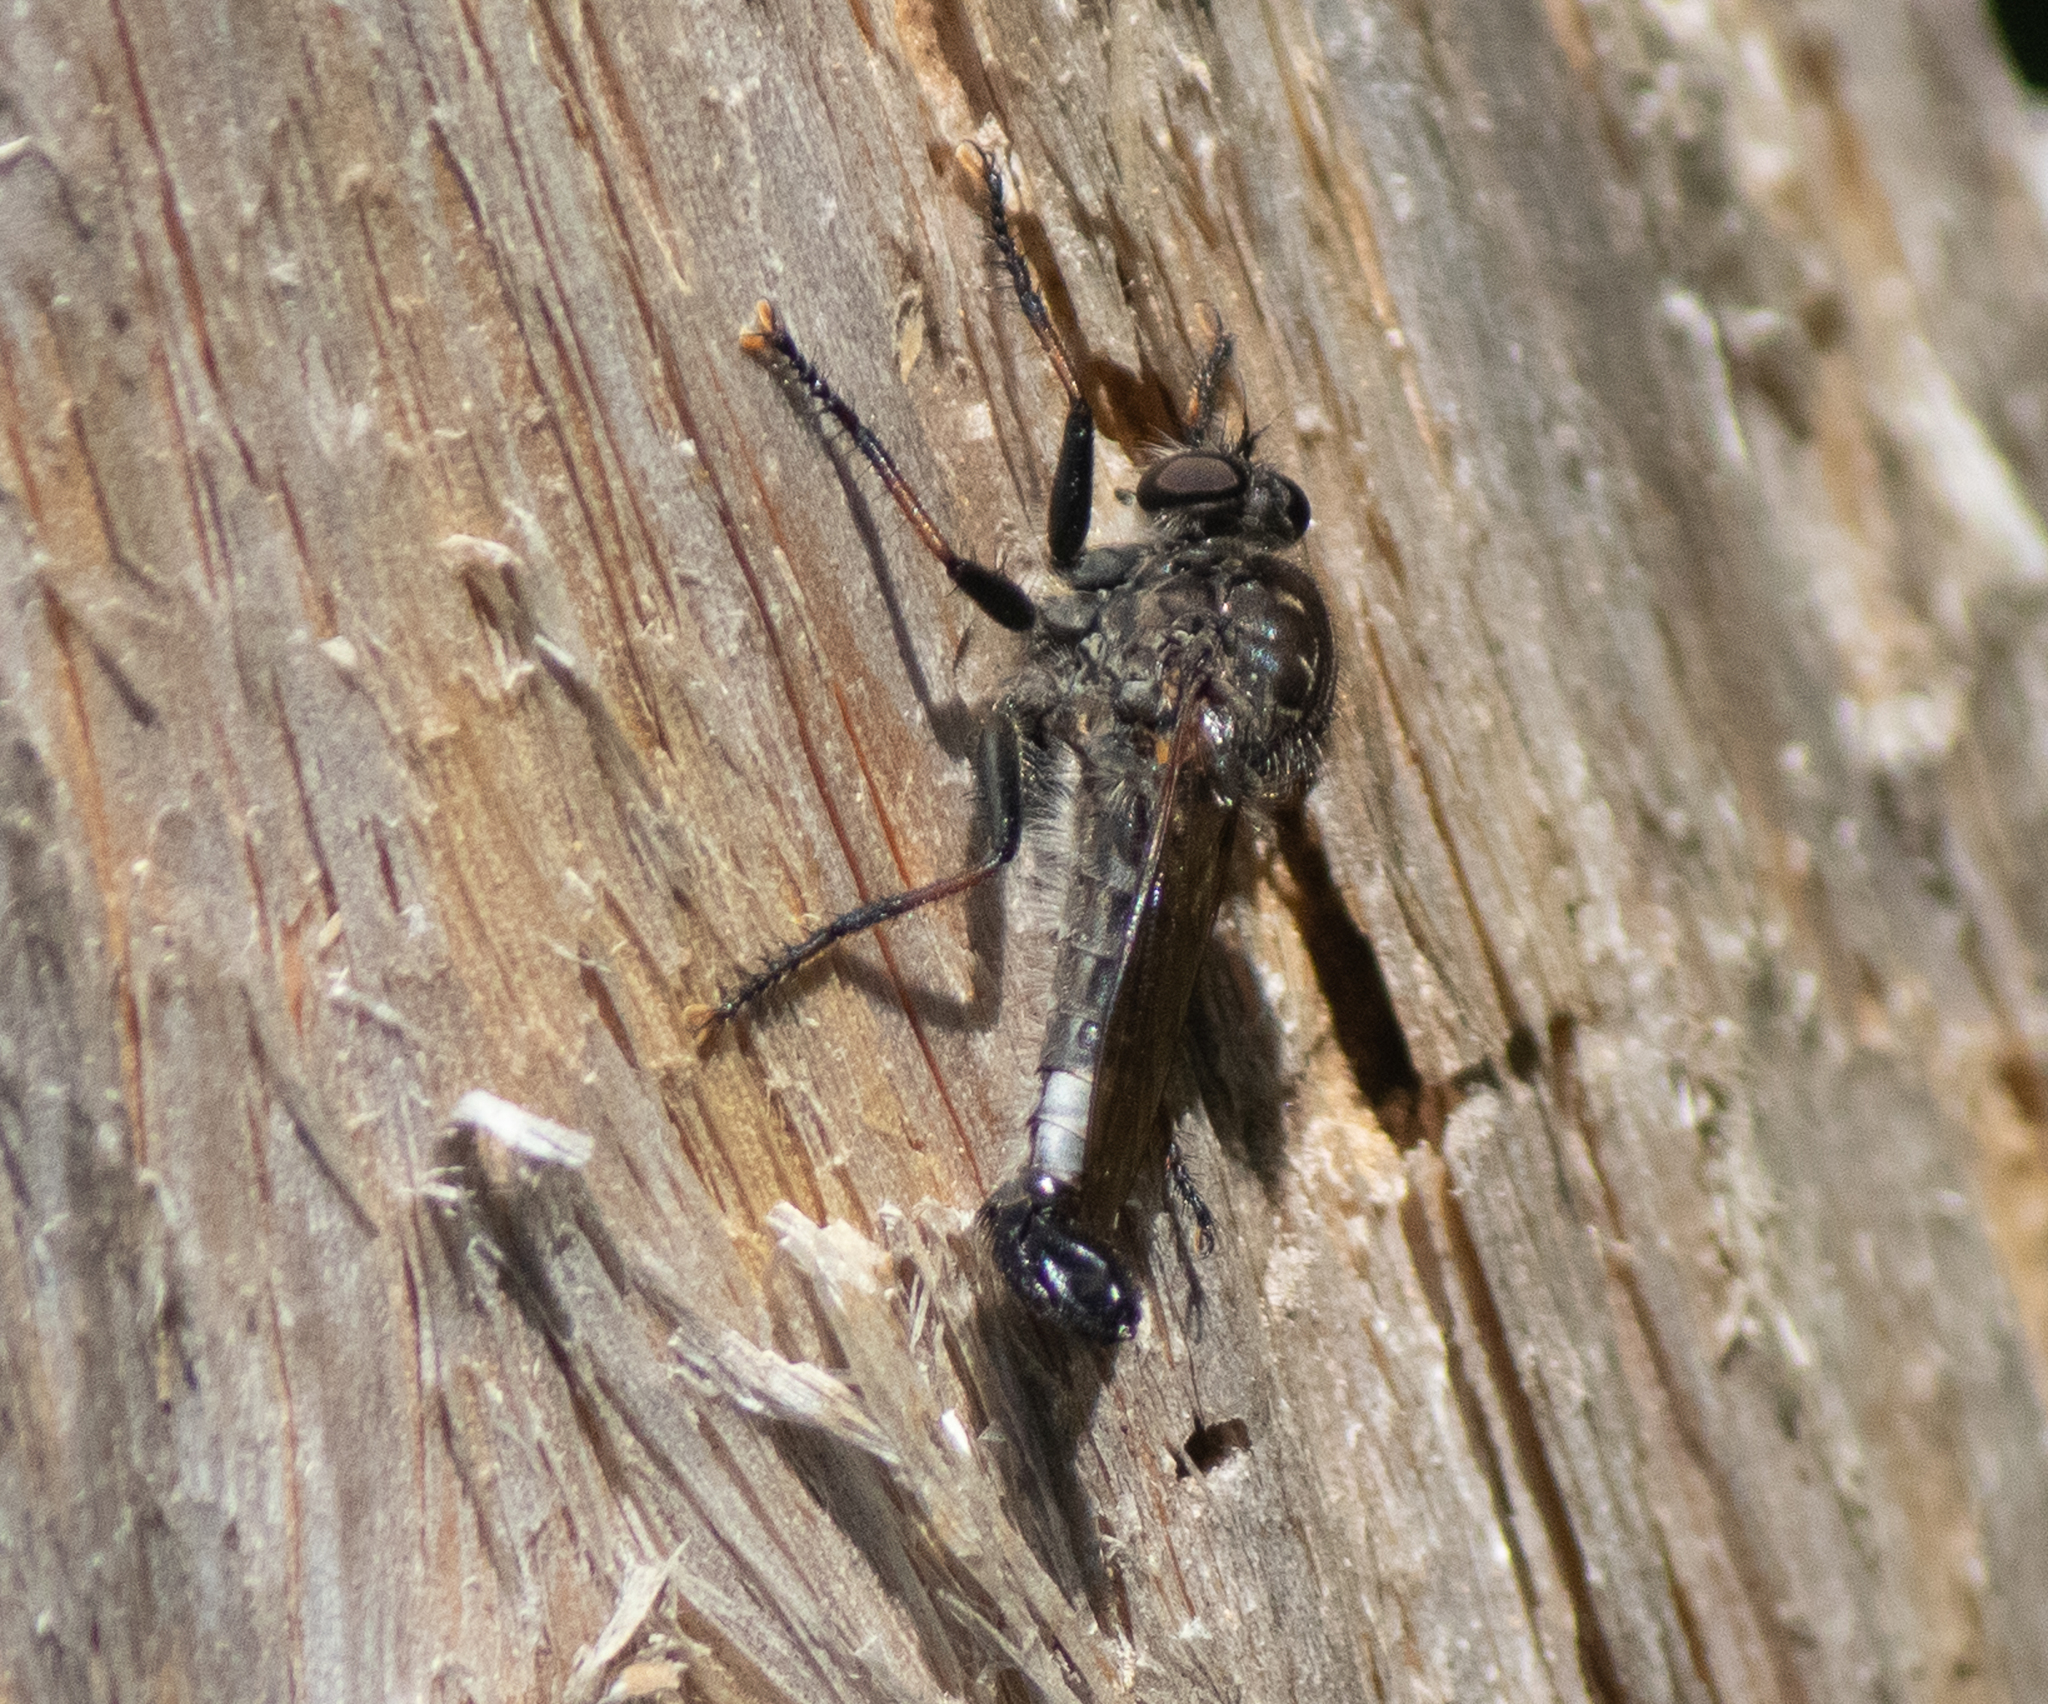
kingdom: Animalia
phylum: Arthropoda
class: Insecta
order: Diptera
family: Asilidae
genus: Efferia
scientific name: Efferia aestuans
